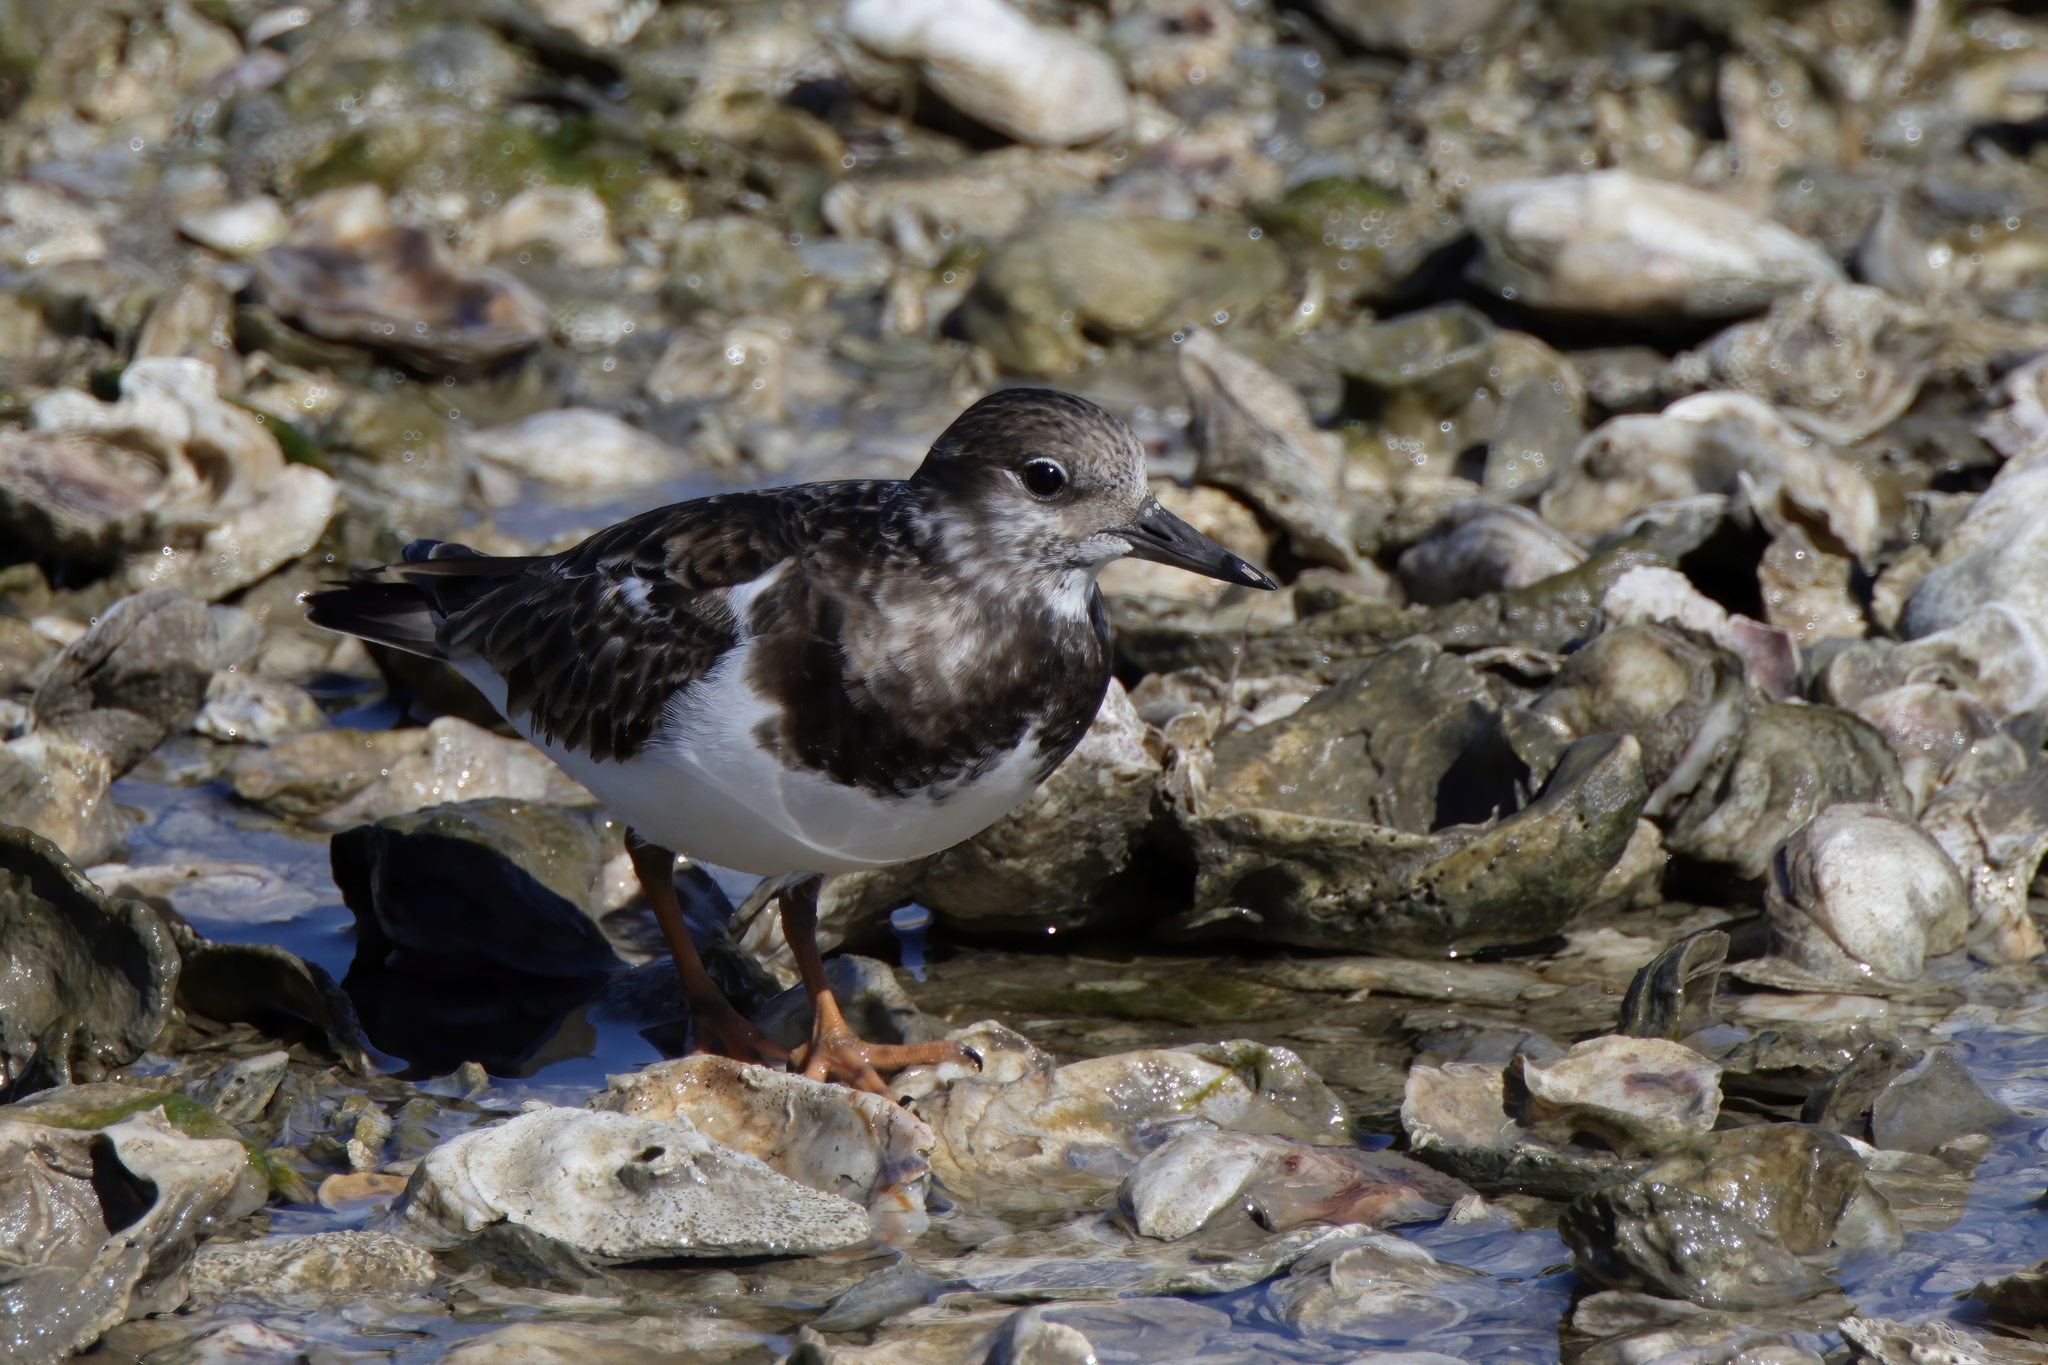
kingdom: Animalia
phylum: Chordata
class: Aves
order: Charadriiformes
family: Scolopacidae
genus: Arenaria
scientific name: Arenaria interpres
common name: Ruddy turnstone
